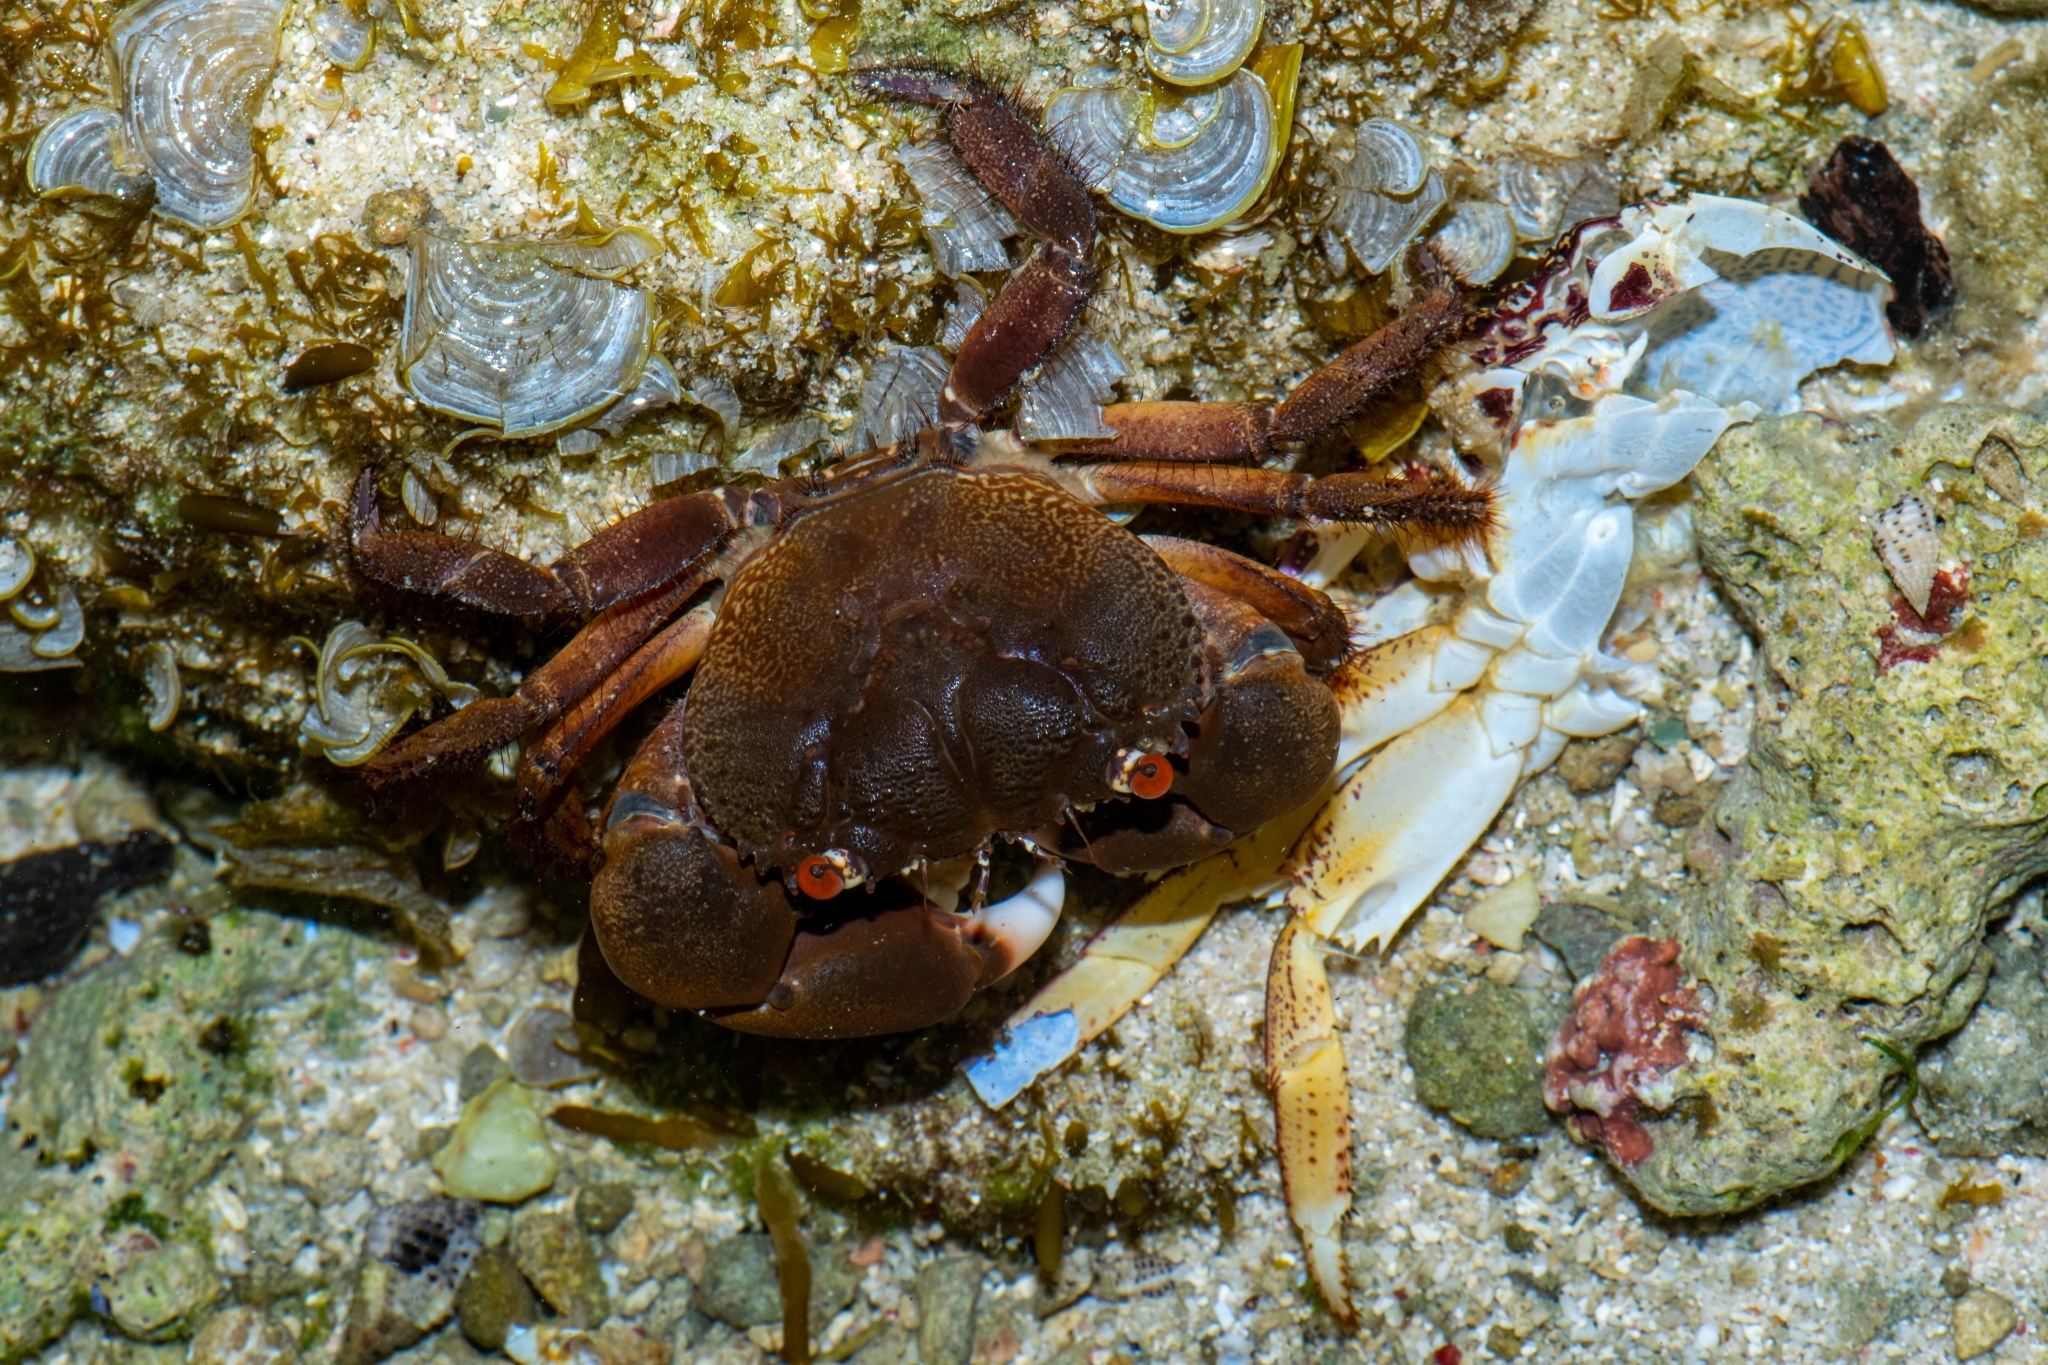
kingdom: Animalia
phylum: Arthropoda
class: Malacostraca
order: Decapoda
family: Eriphiidae
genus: Eriphia
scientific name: Eriphia sebana
